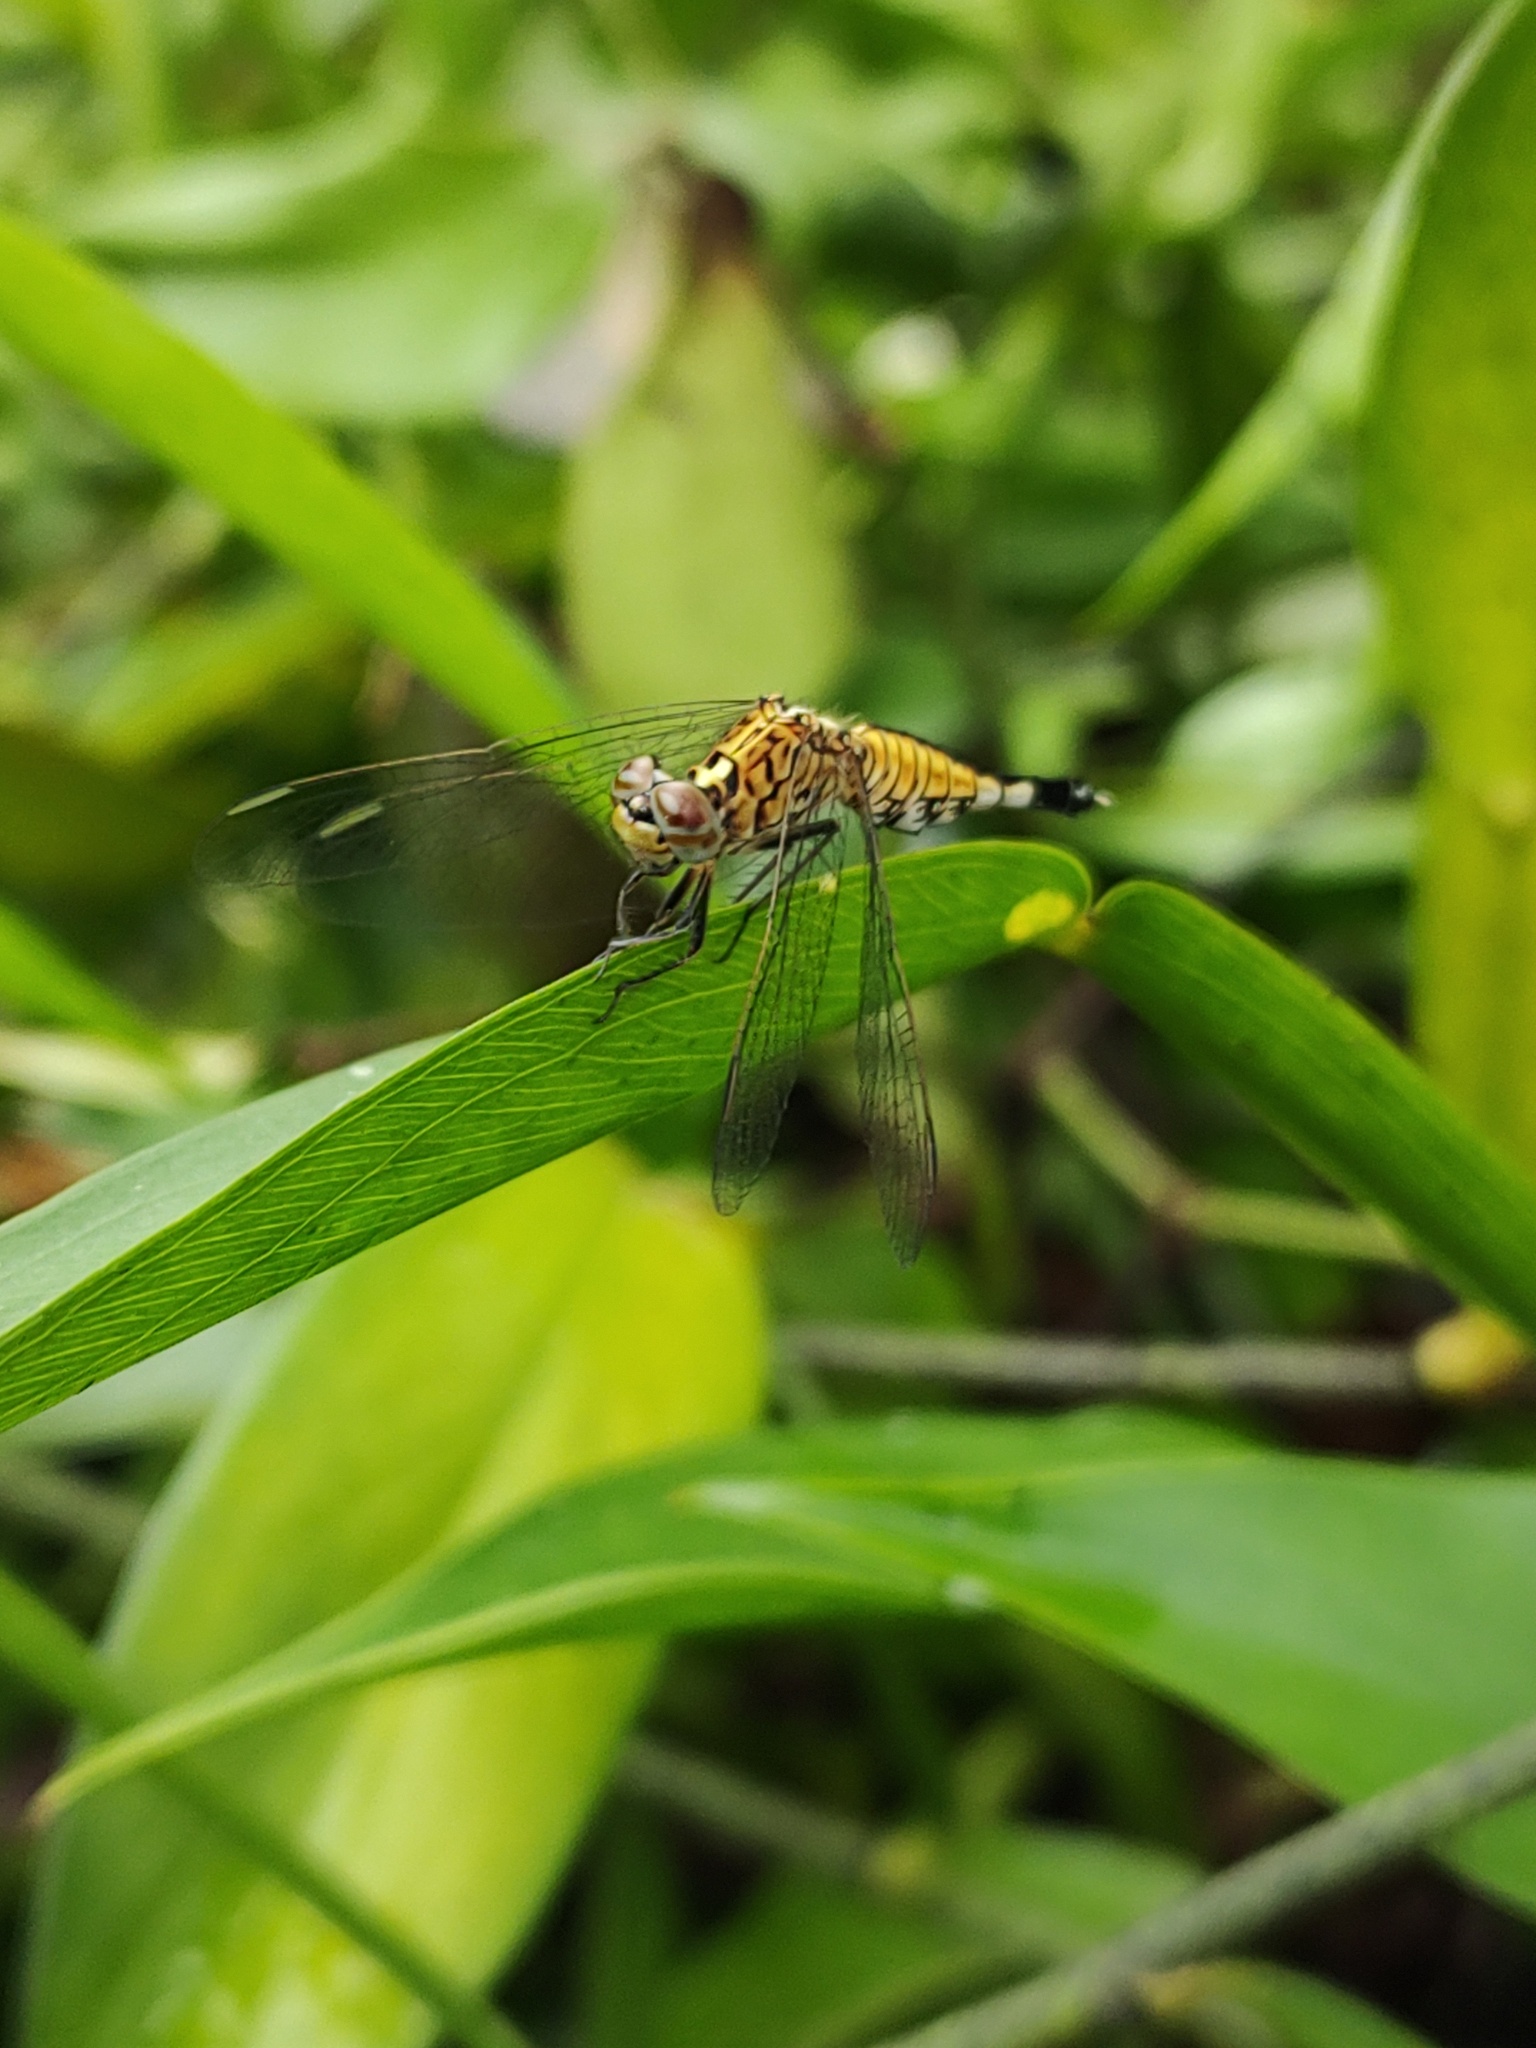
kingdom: Animalia
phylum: Arthropoda
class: Insecta
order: Odonata
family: Libellulidae
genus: Acisoma
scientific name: Acisoma panorpoides
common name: Asian pintail
